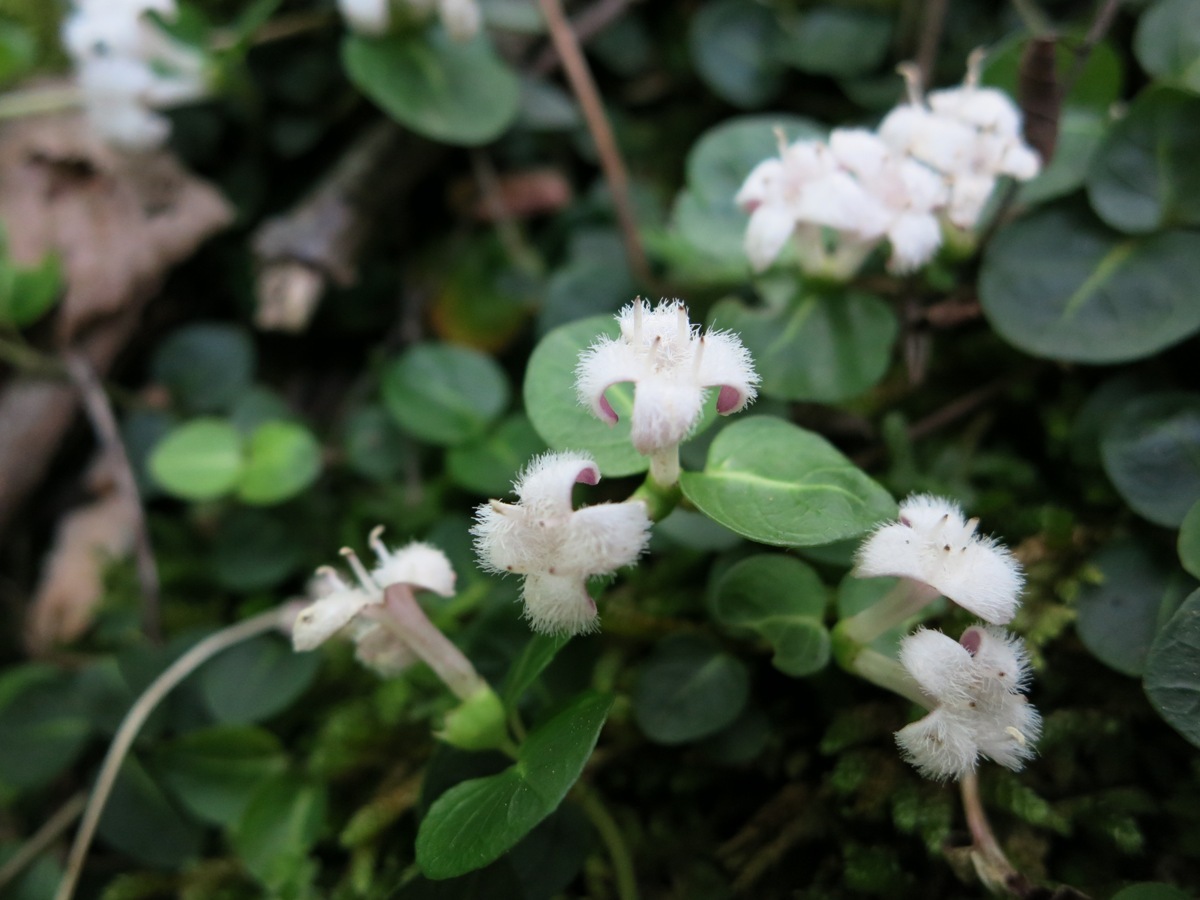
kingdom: Plantae
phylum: Tracheophyta
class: Magnoliopsida
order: Gentianales
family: Rubiaceae
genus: Mitchella
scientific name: Mitchella repens
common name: Partridge-berry
